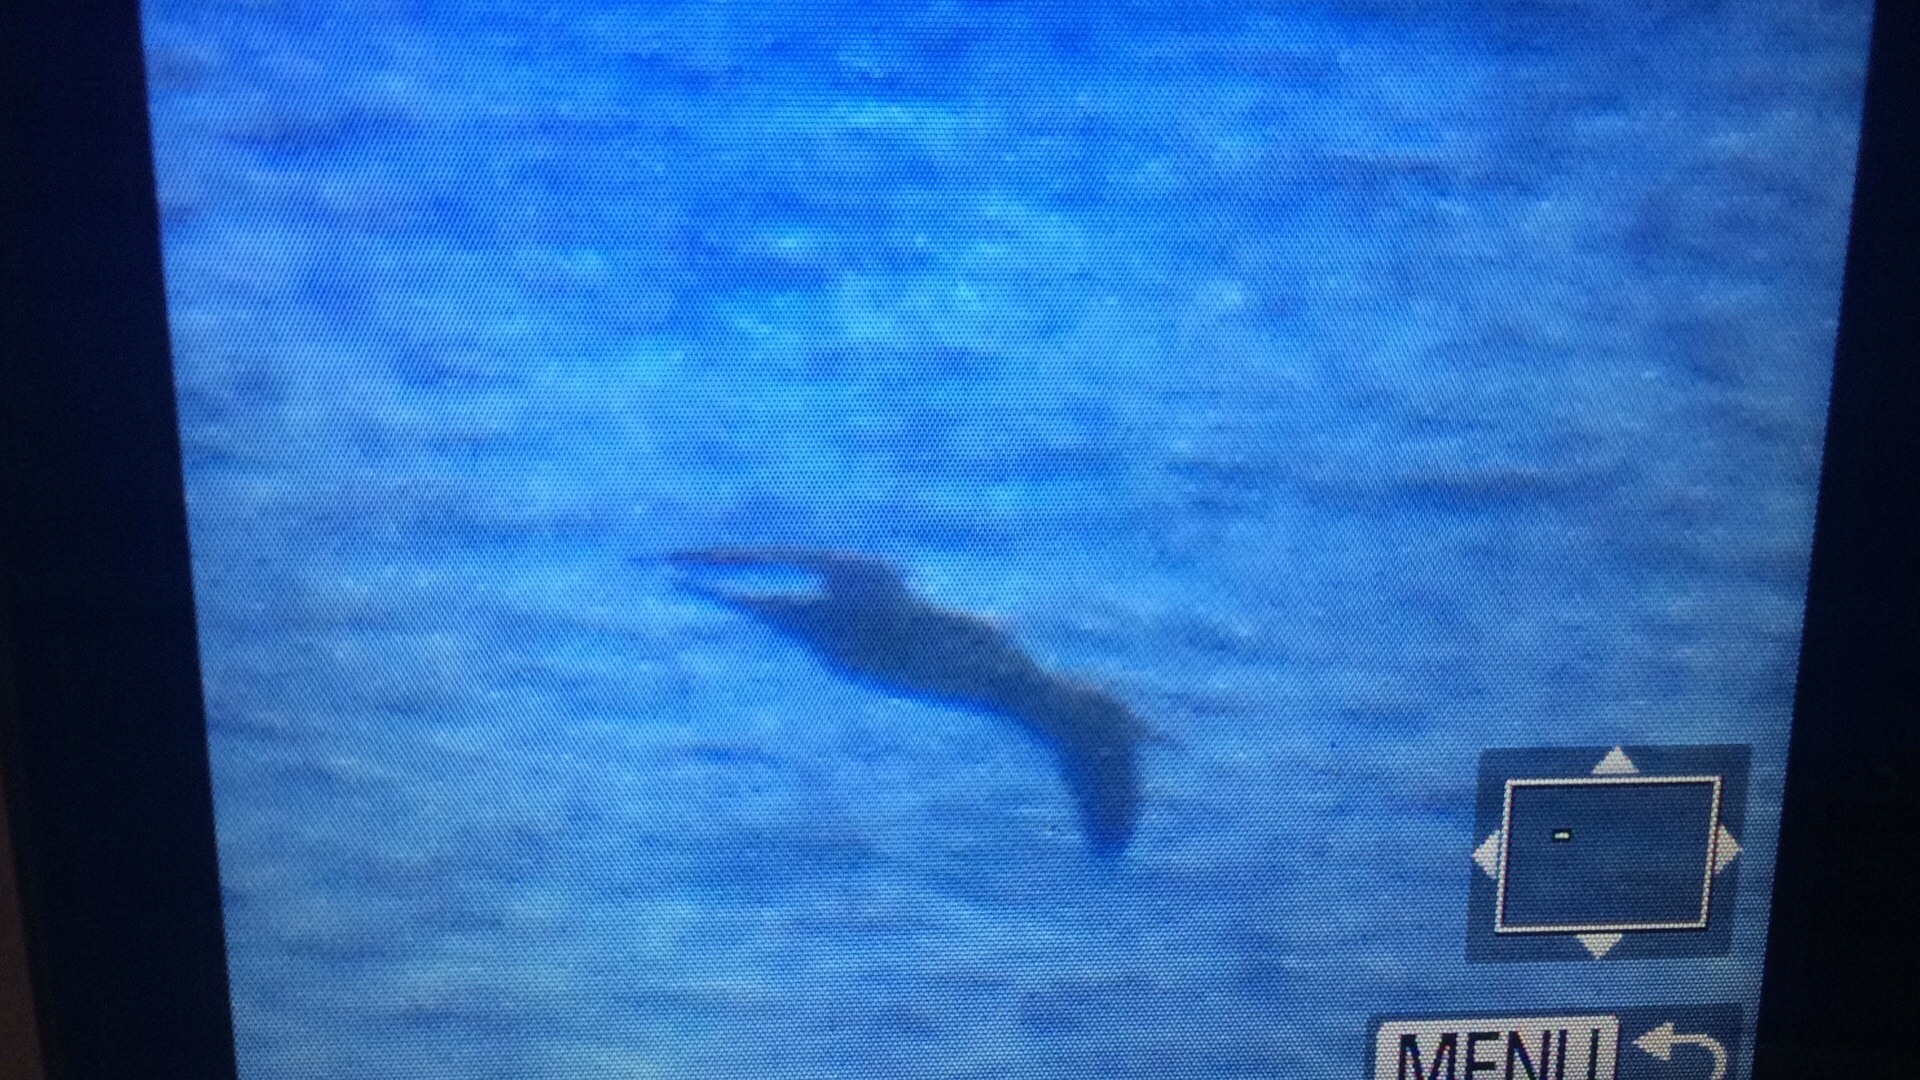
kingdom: Animalia
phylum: Chordata
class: Aves
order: Suliformes
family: Sulidae
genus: Morus
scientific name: Morus capensis
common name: Cape gannet
